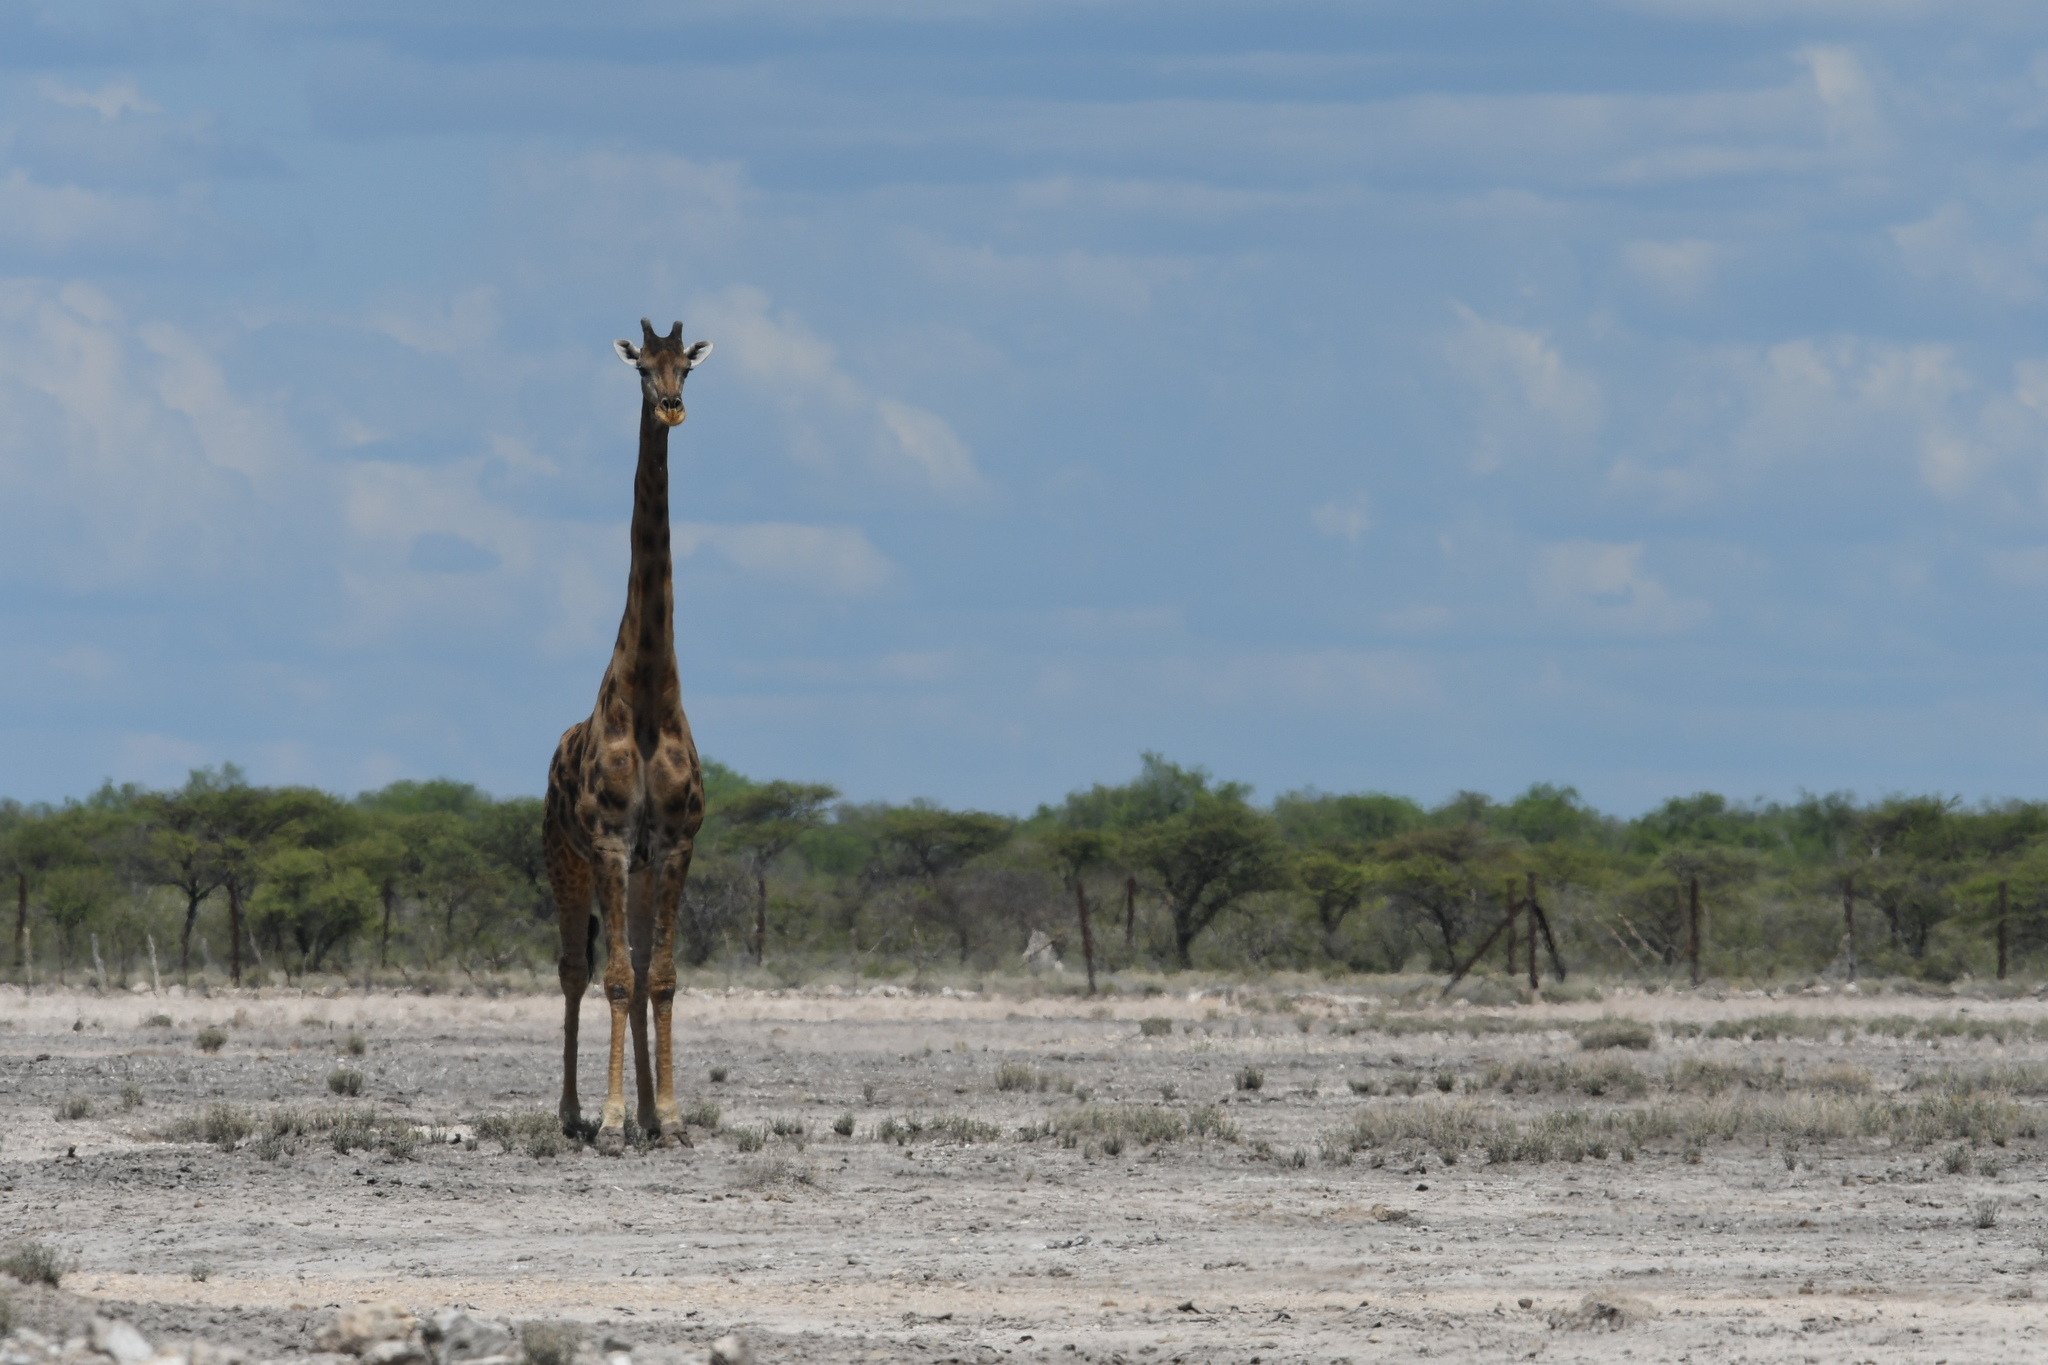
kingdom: Animalia
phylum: Chordata
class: Mammalia
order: Artiodactyla
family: Giraffidae
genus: Giraffa
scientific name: Giraffa giraffa
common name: Southern giraffe
